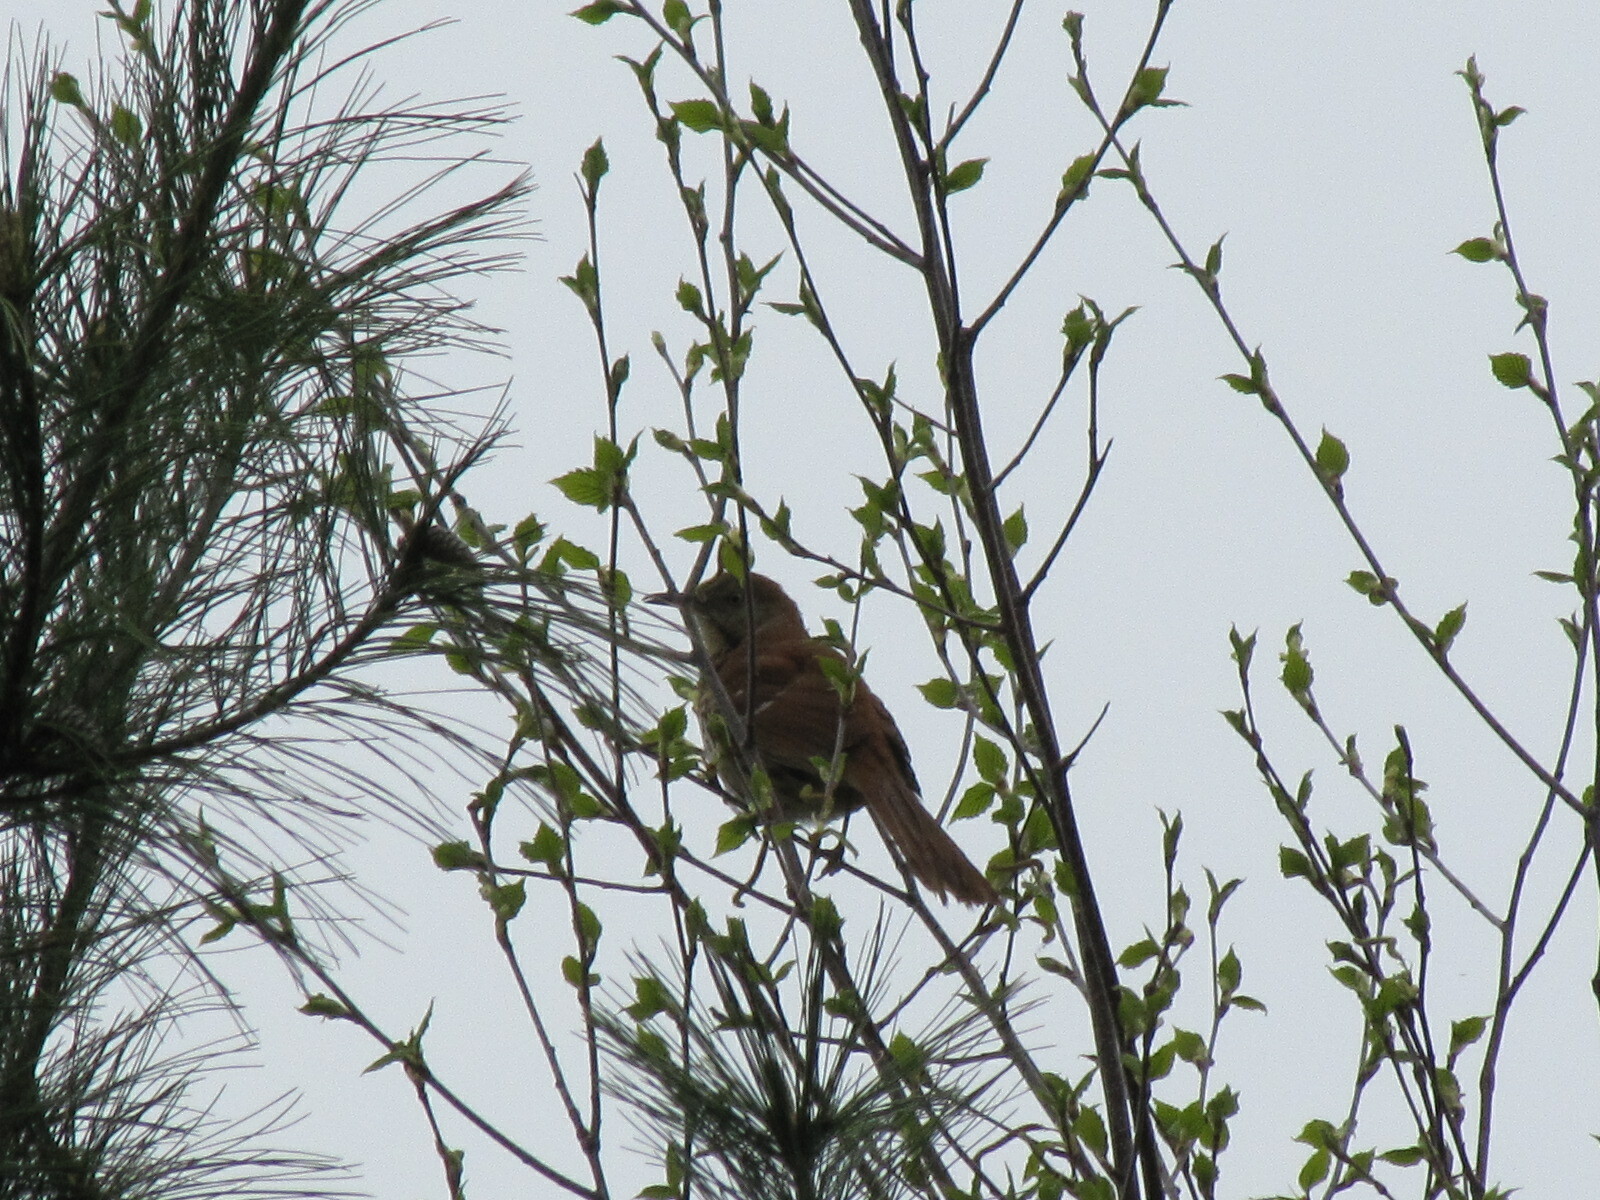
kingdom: Animalia
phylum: Chordata
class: Aves
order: Passeriformes
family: Mimidae
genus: Toxostoma
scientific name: Toxostoma rufum
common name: Brown thrasher
